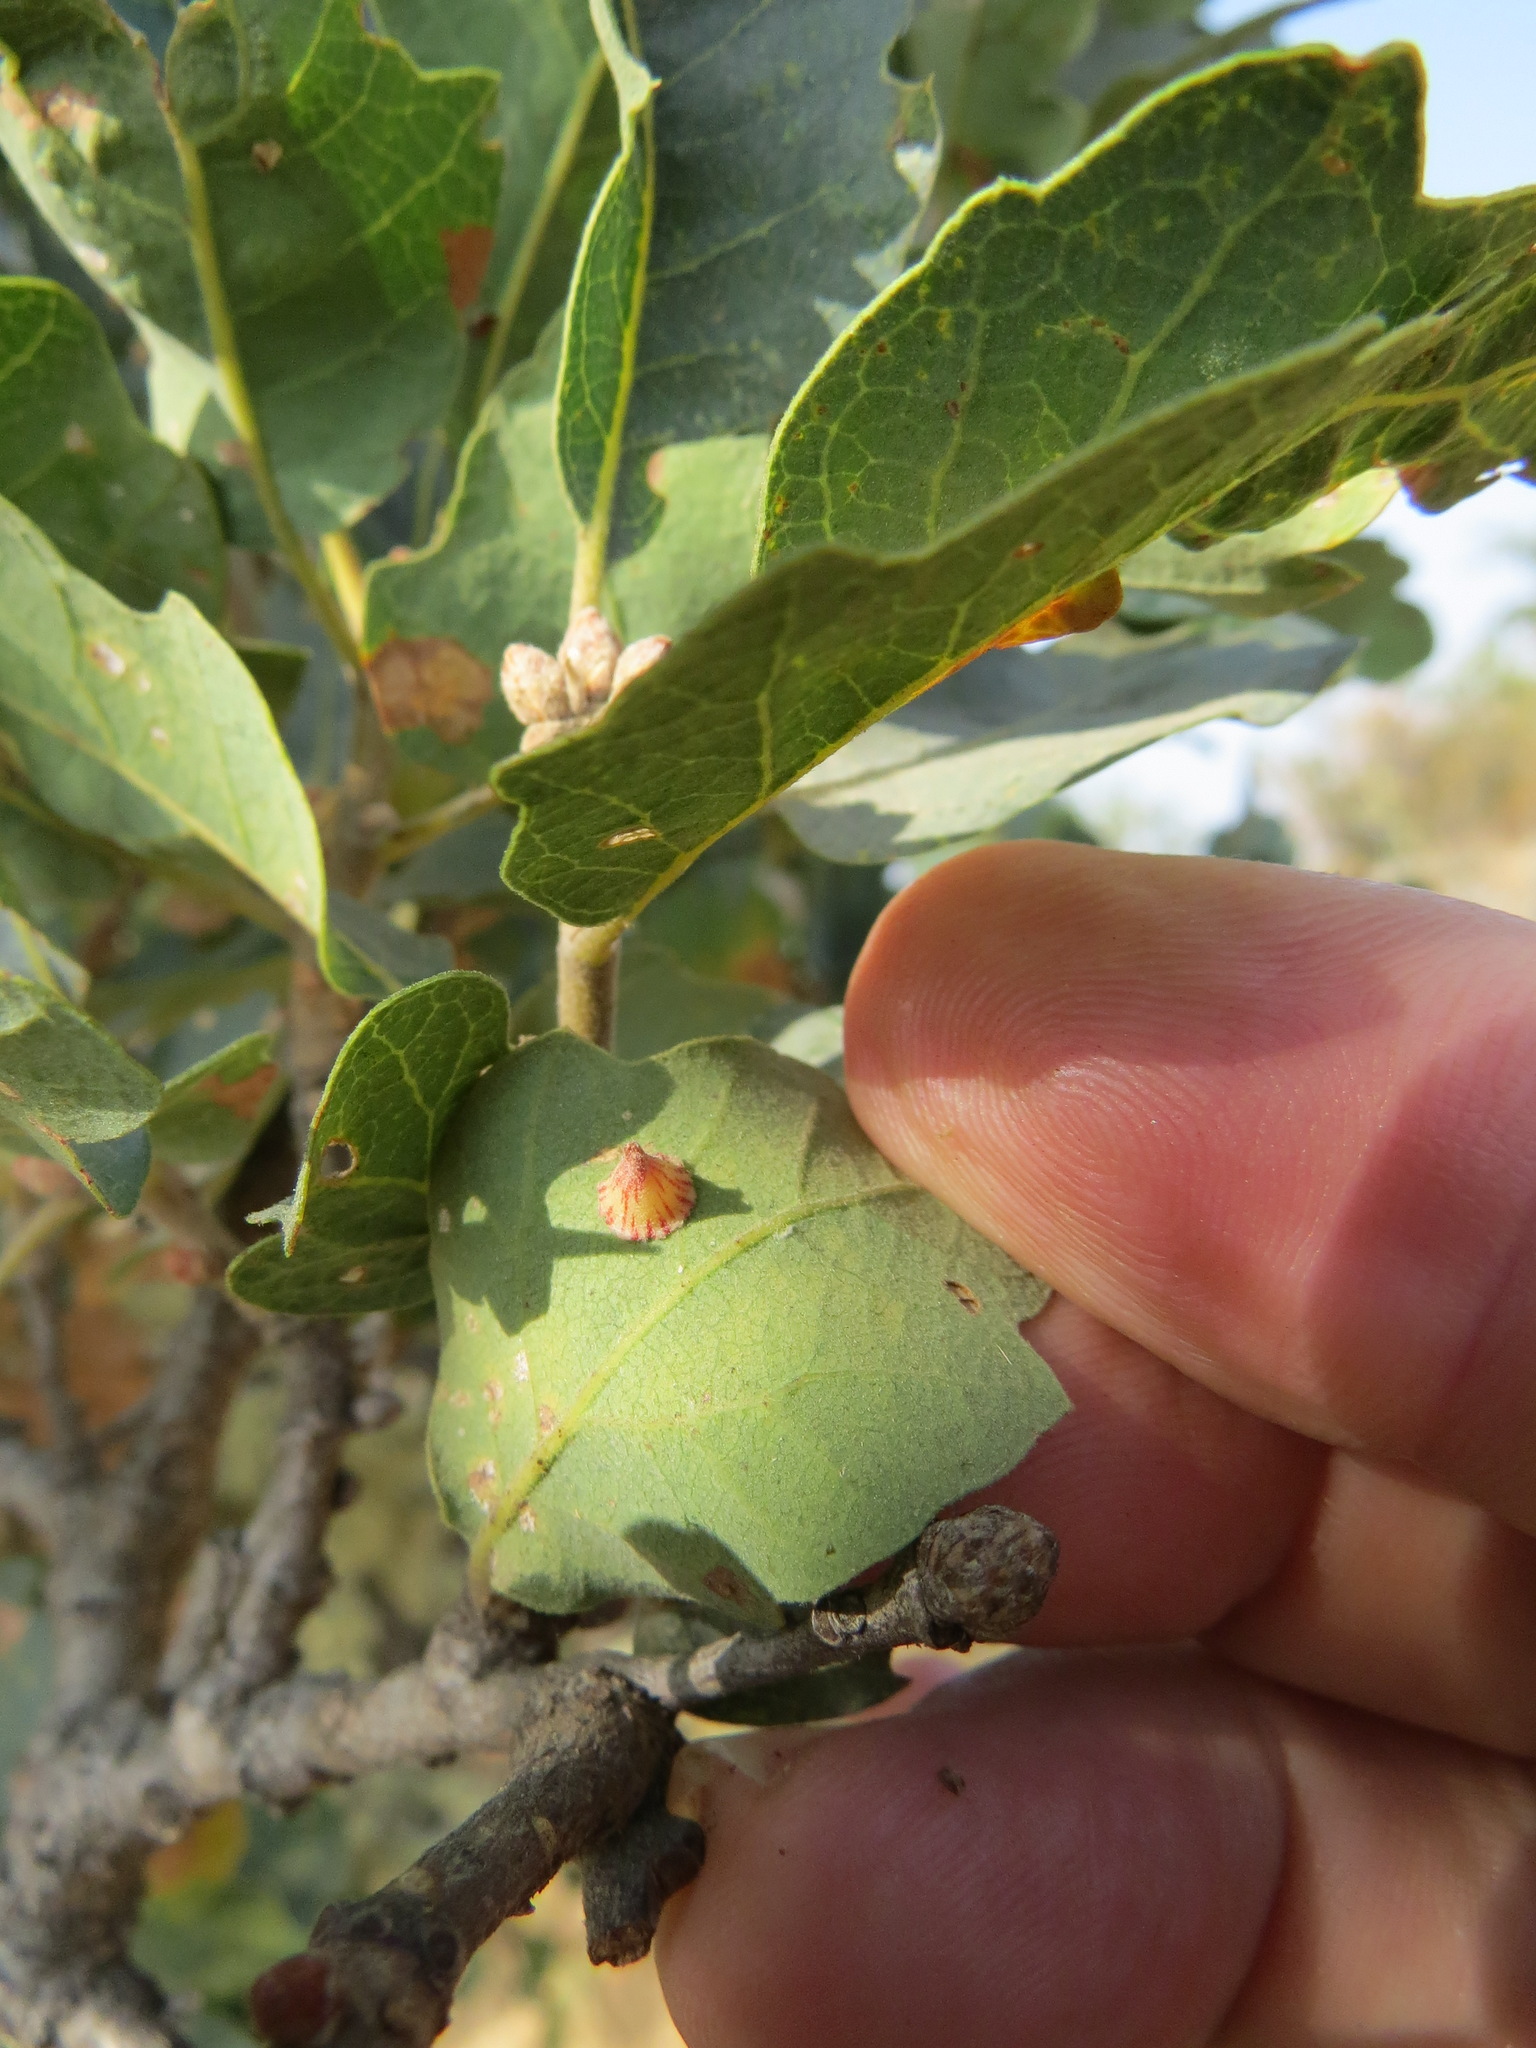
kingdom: Animalia
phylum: Arthropoda
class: Insecta
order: Hymenoptera
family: Cynipidae
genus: Andricus
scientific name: Andricus
